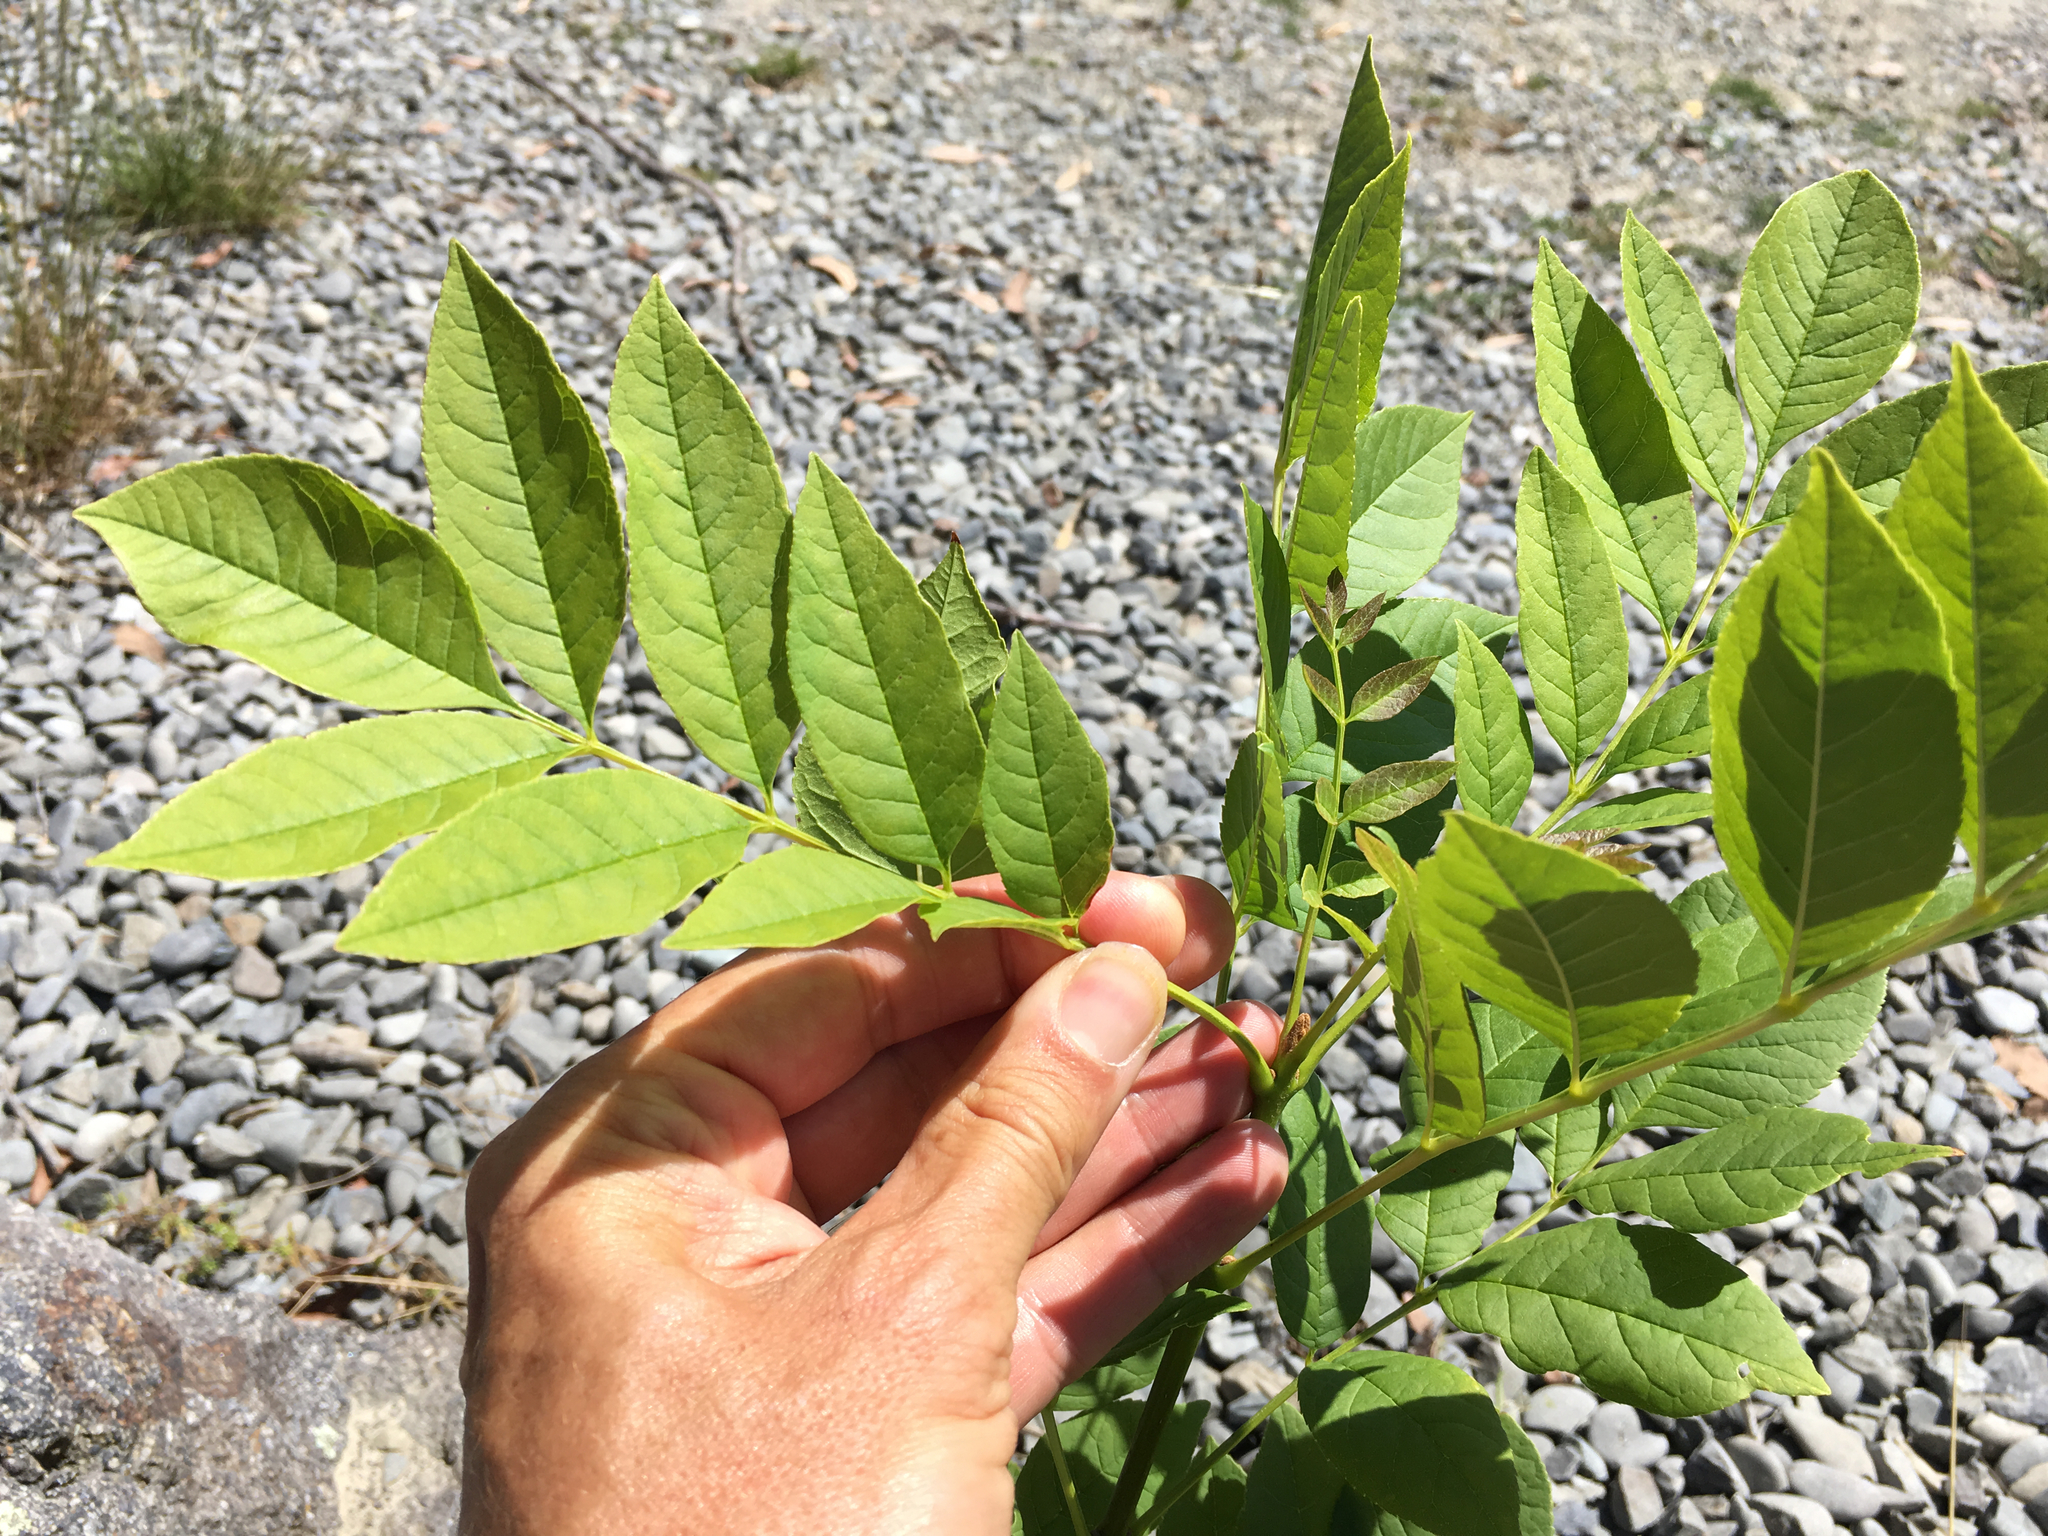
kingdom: Plantae
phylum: Tracheophyta
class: Magnoliopsida
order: Lamiales
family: Oleaceae
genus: Fraxinus
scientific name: Fraxinus excelsior
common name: European ash
